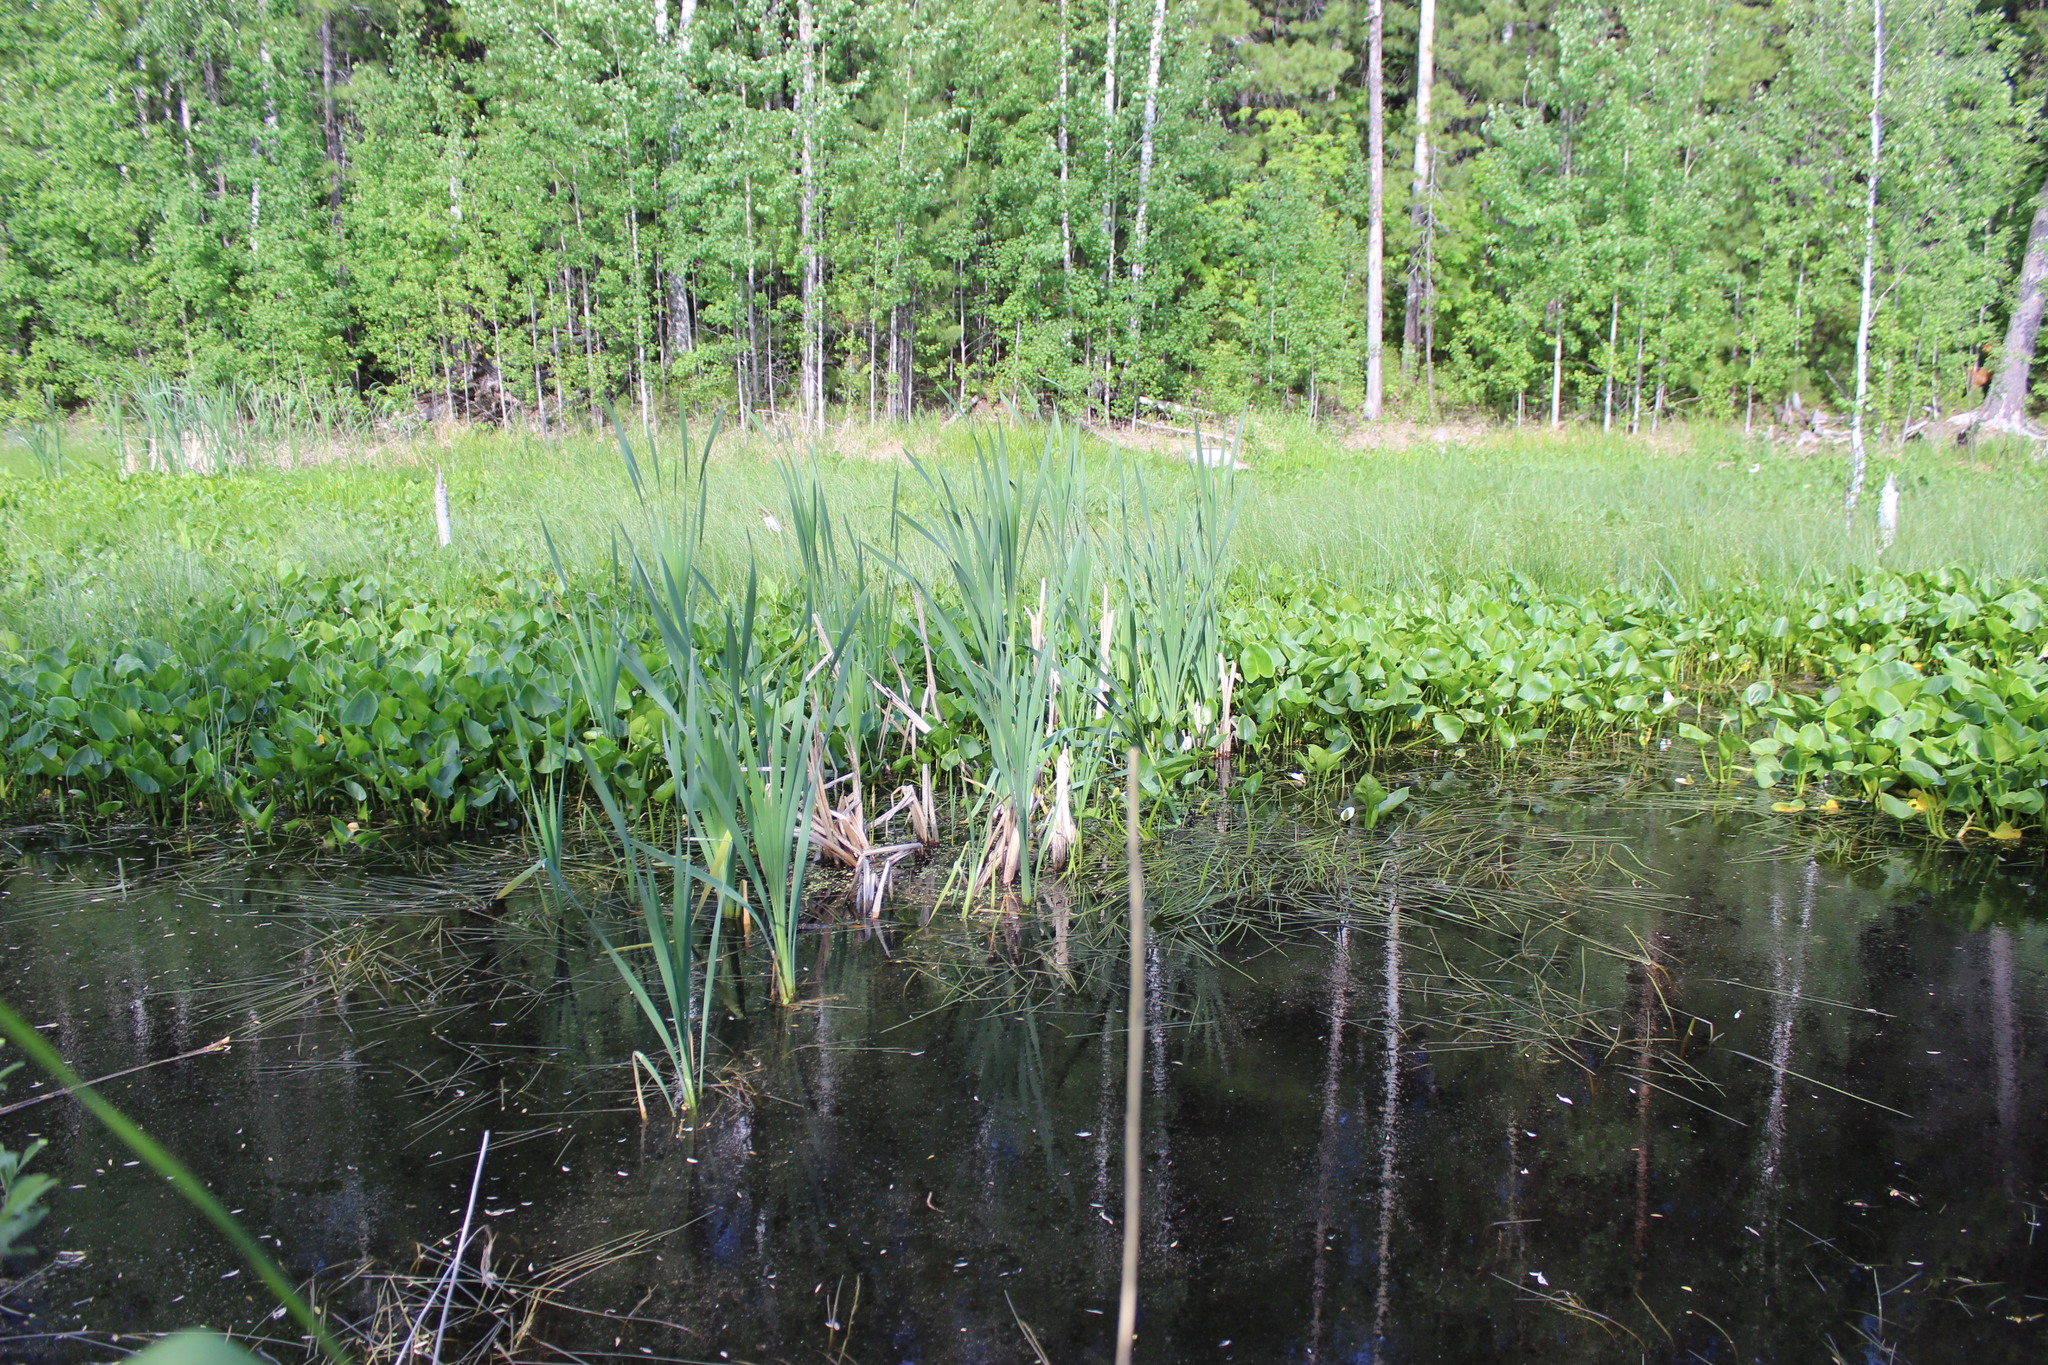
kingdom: Plantae
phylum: Tracheophyta
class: Liliopsida
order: Poales
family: Typhaceae
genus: Typha
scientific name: Typha latifolia
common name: Broadleaf cattail
